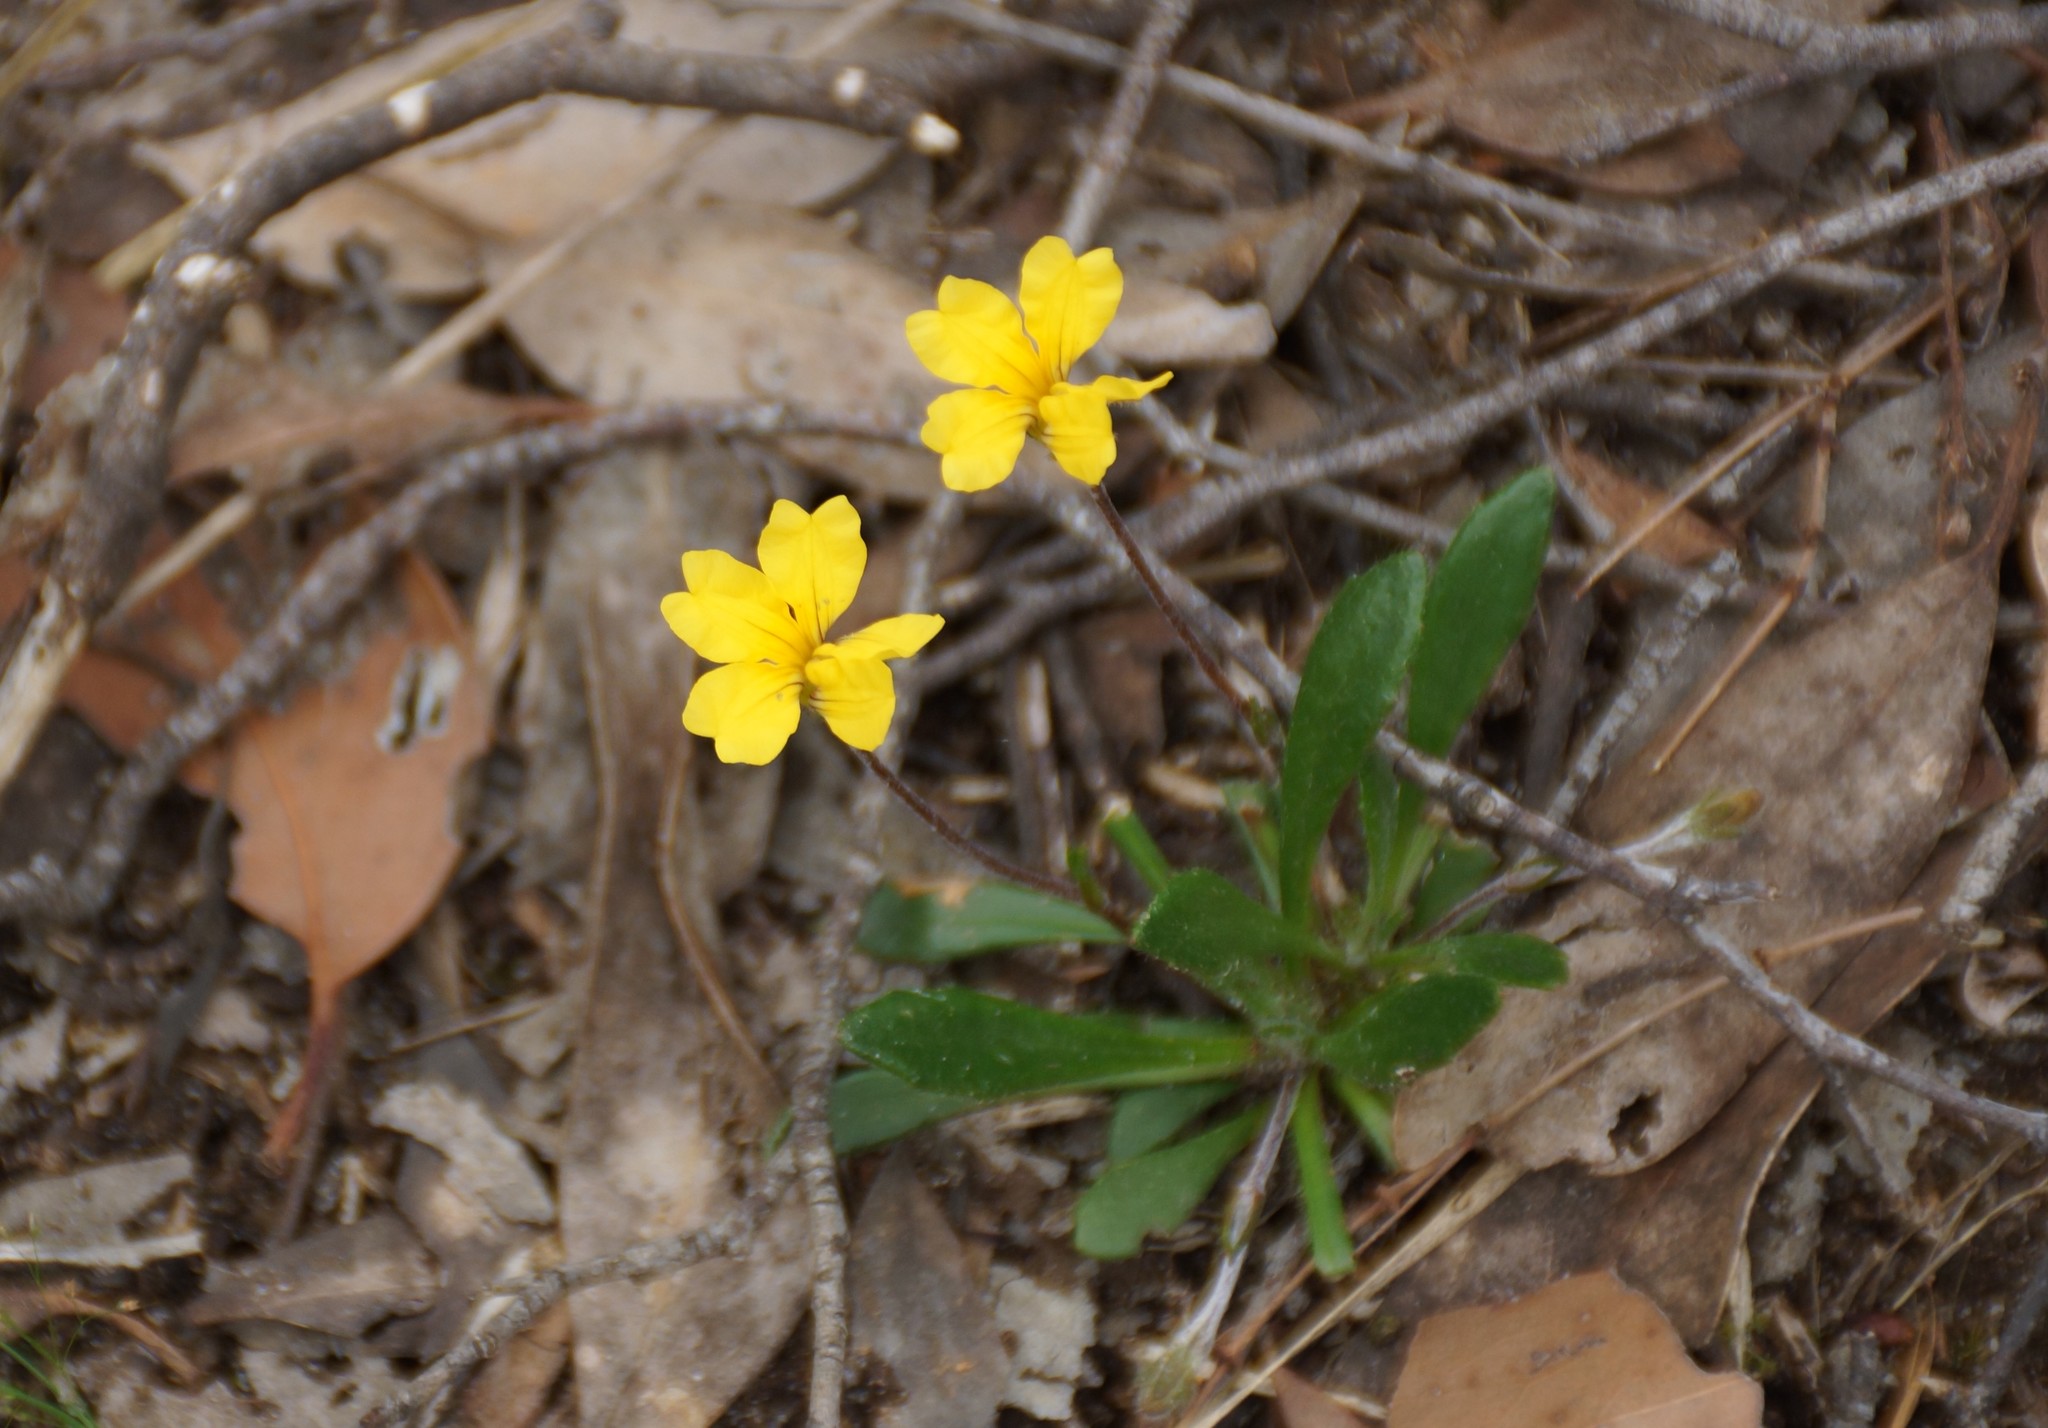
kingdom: Plantae
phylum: Tracheophyta
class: Magnoliopsida
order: Asterales
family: Goodeniaceae
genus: Goodenia
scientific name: Goodenia geniculata
